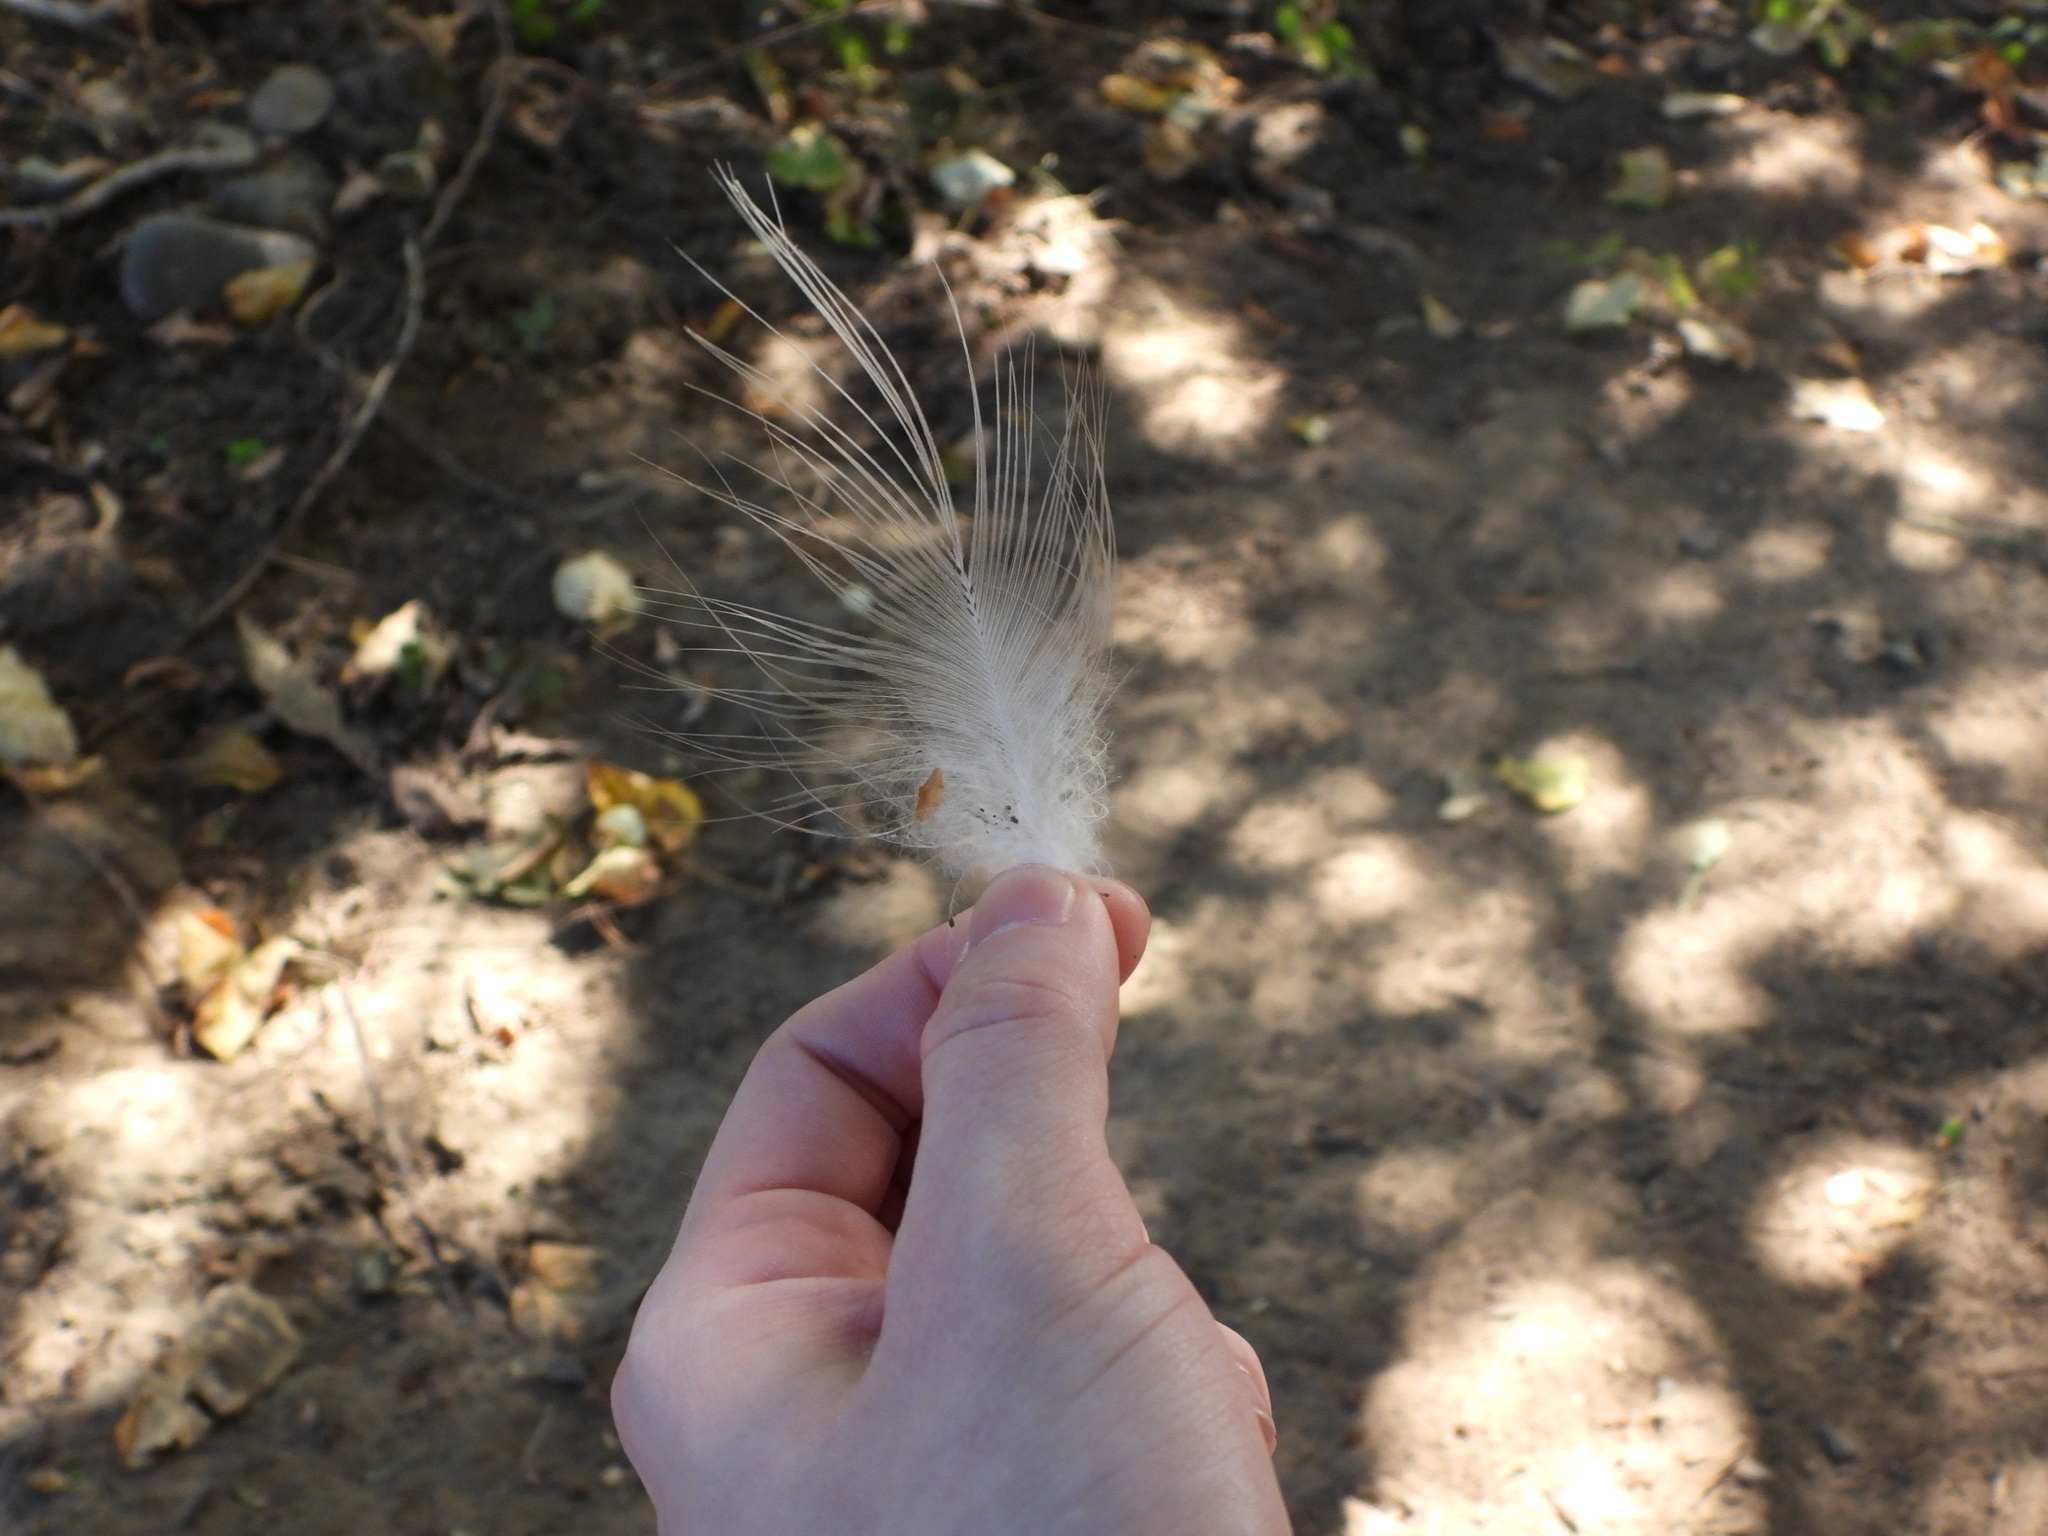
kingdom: Animalia
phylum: Chordata
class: Aves
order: Pelecaniformes
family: Ardeidae
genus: Ardea
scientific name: Ardea herodias
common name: Great blue heron
